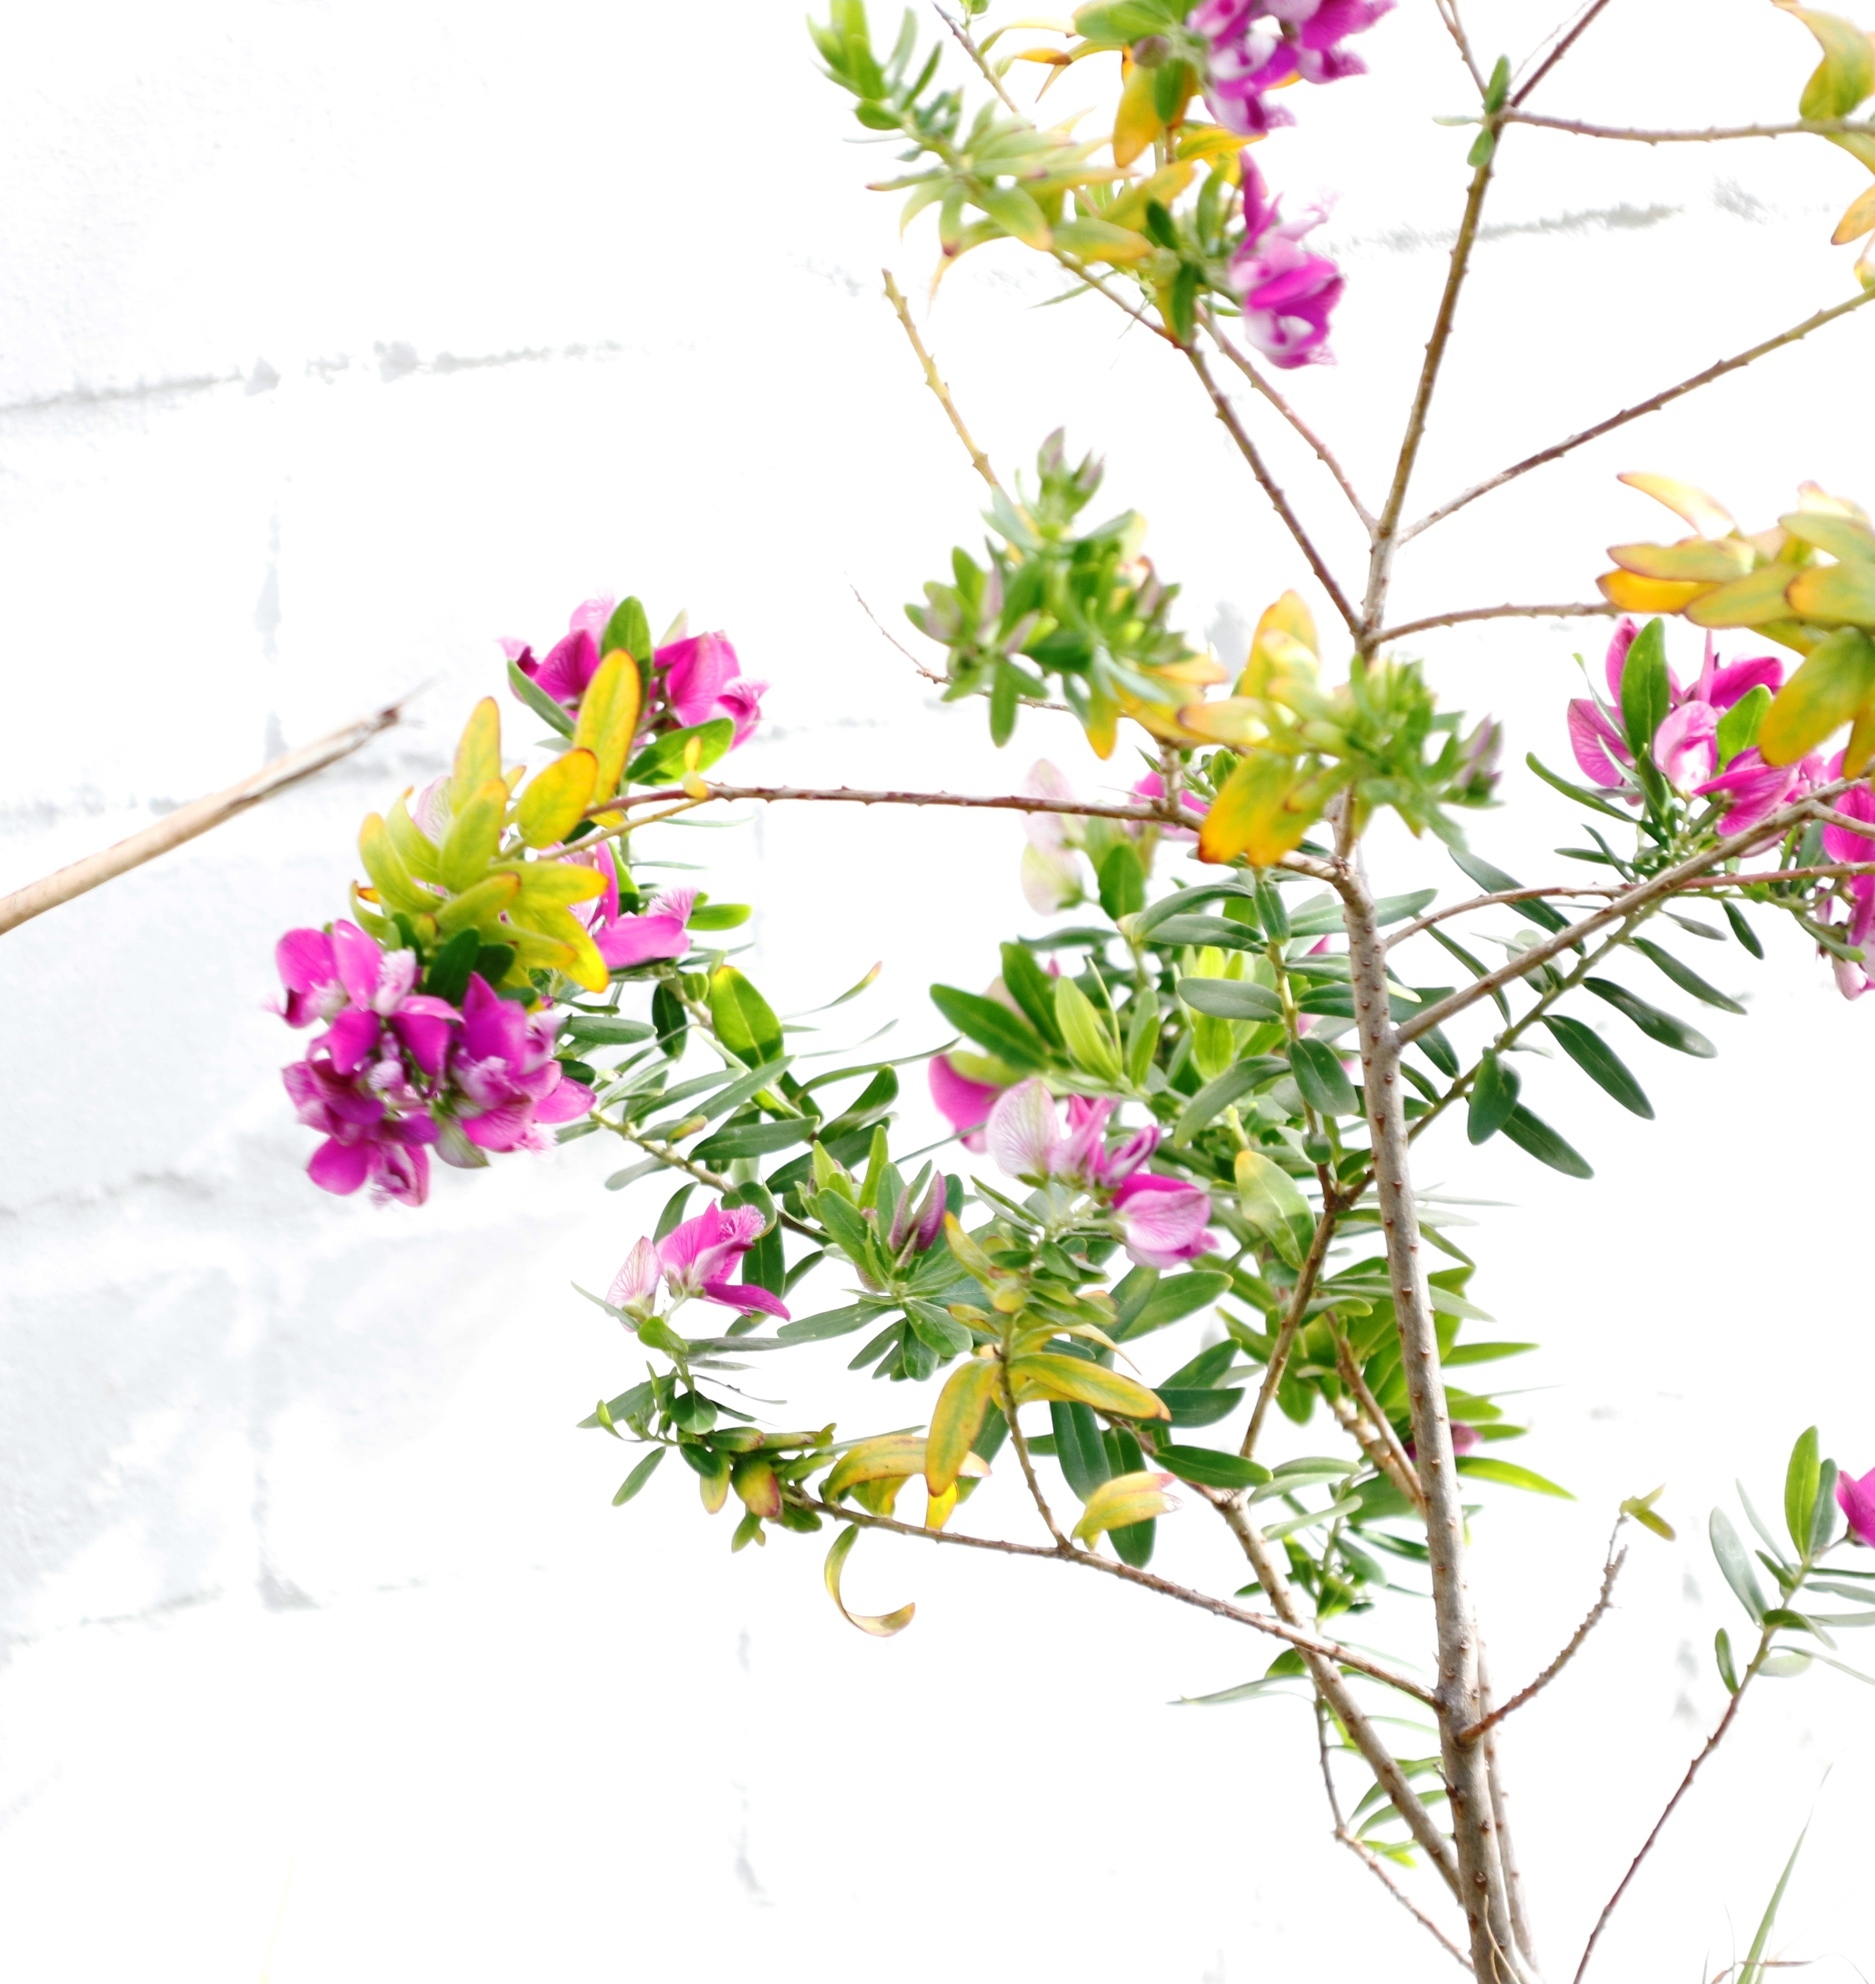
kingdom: Plantae
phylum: Tracheophyta
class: Magnoliopsida
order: Fabales
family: Polygalaceae
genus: Polygala
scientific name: Polygala myrtifolia
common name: Myrtle-leaf milkwort
